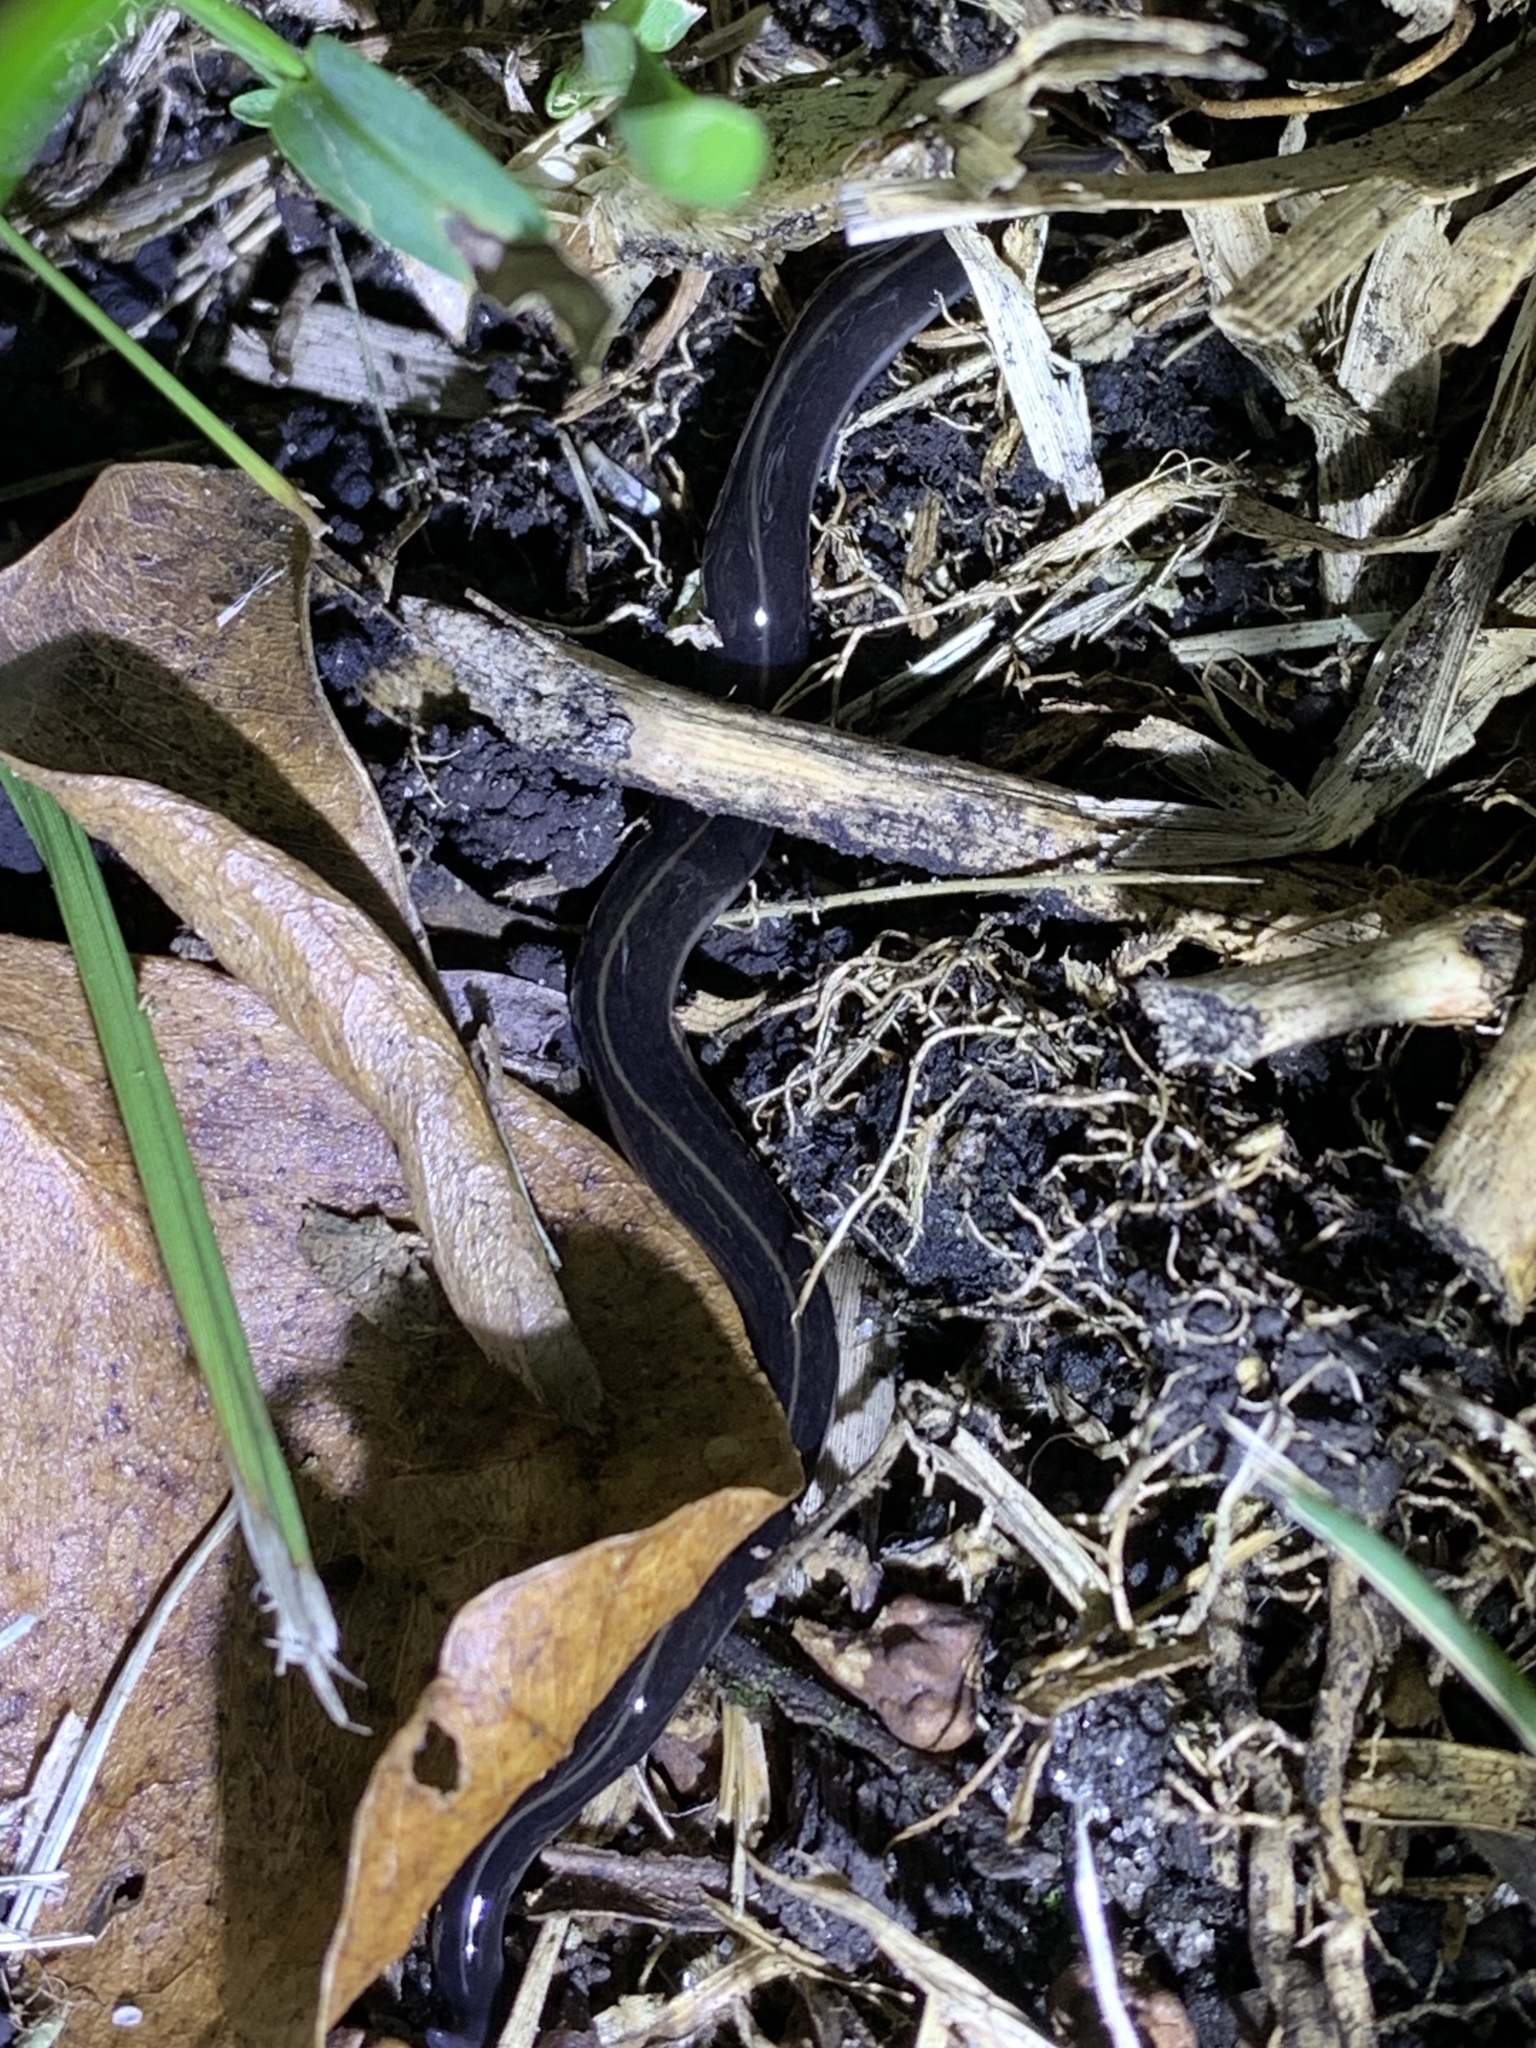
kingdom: Animalia
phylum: Platyhelminthes
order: Tricladida
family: Geoplanidae
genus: Platydemus
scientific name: Platydemus manokwari
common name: New guinea flatworm
